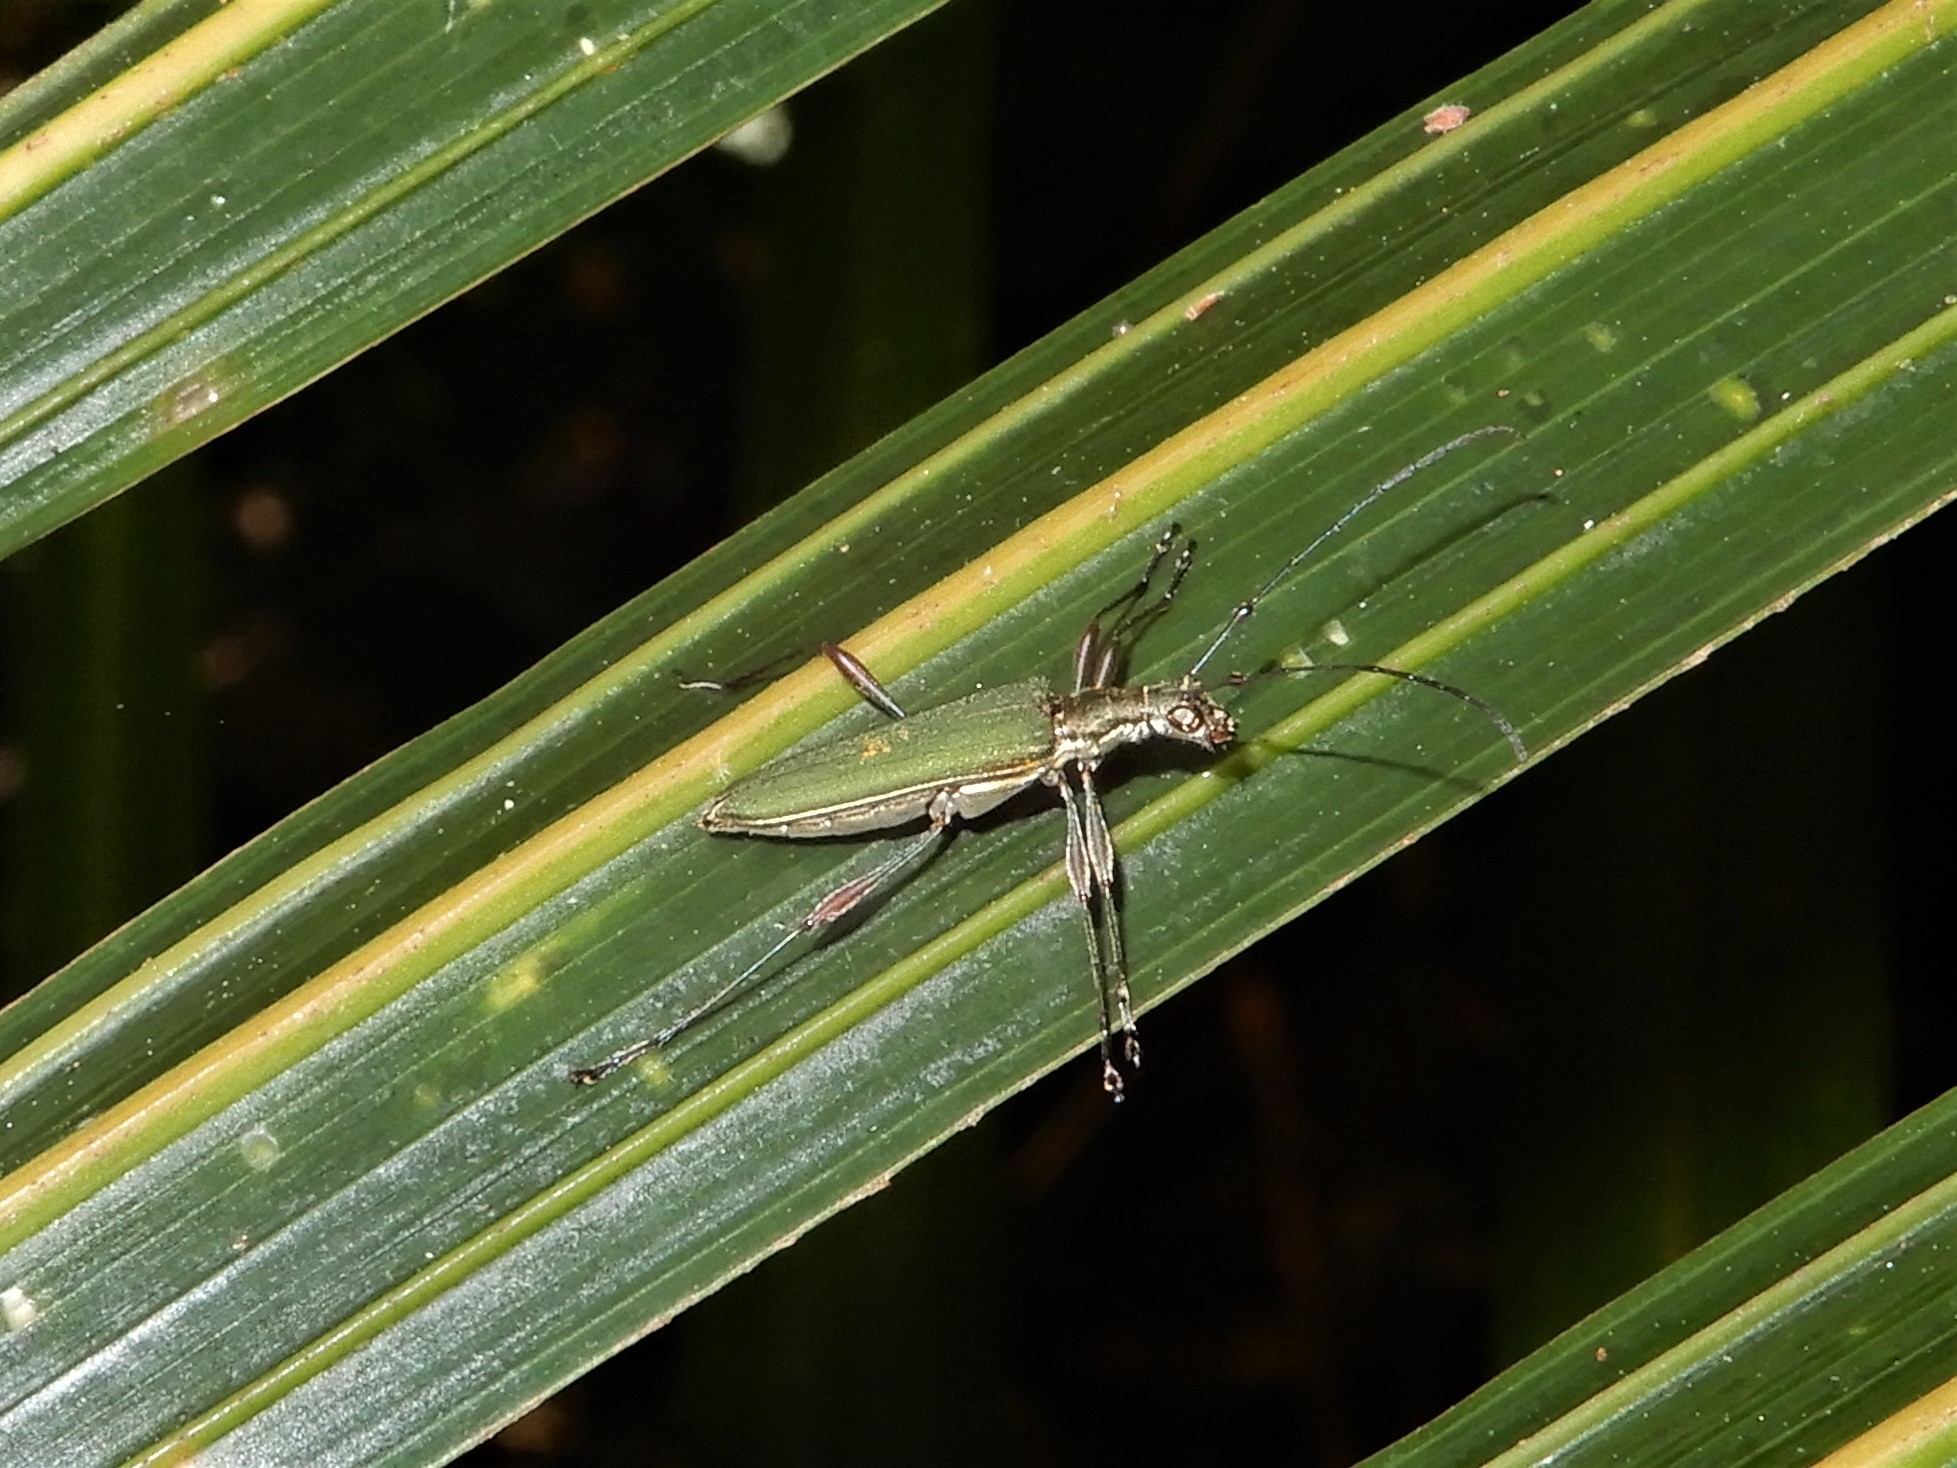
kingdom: Animalia
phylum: Arthropoda
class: Insecta
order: Coleoptera
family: Cerambycidae
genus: Calliprason
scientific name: Calliprason sinclairi
